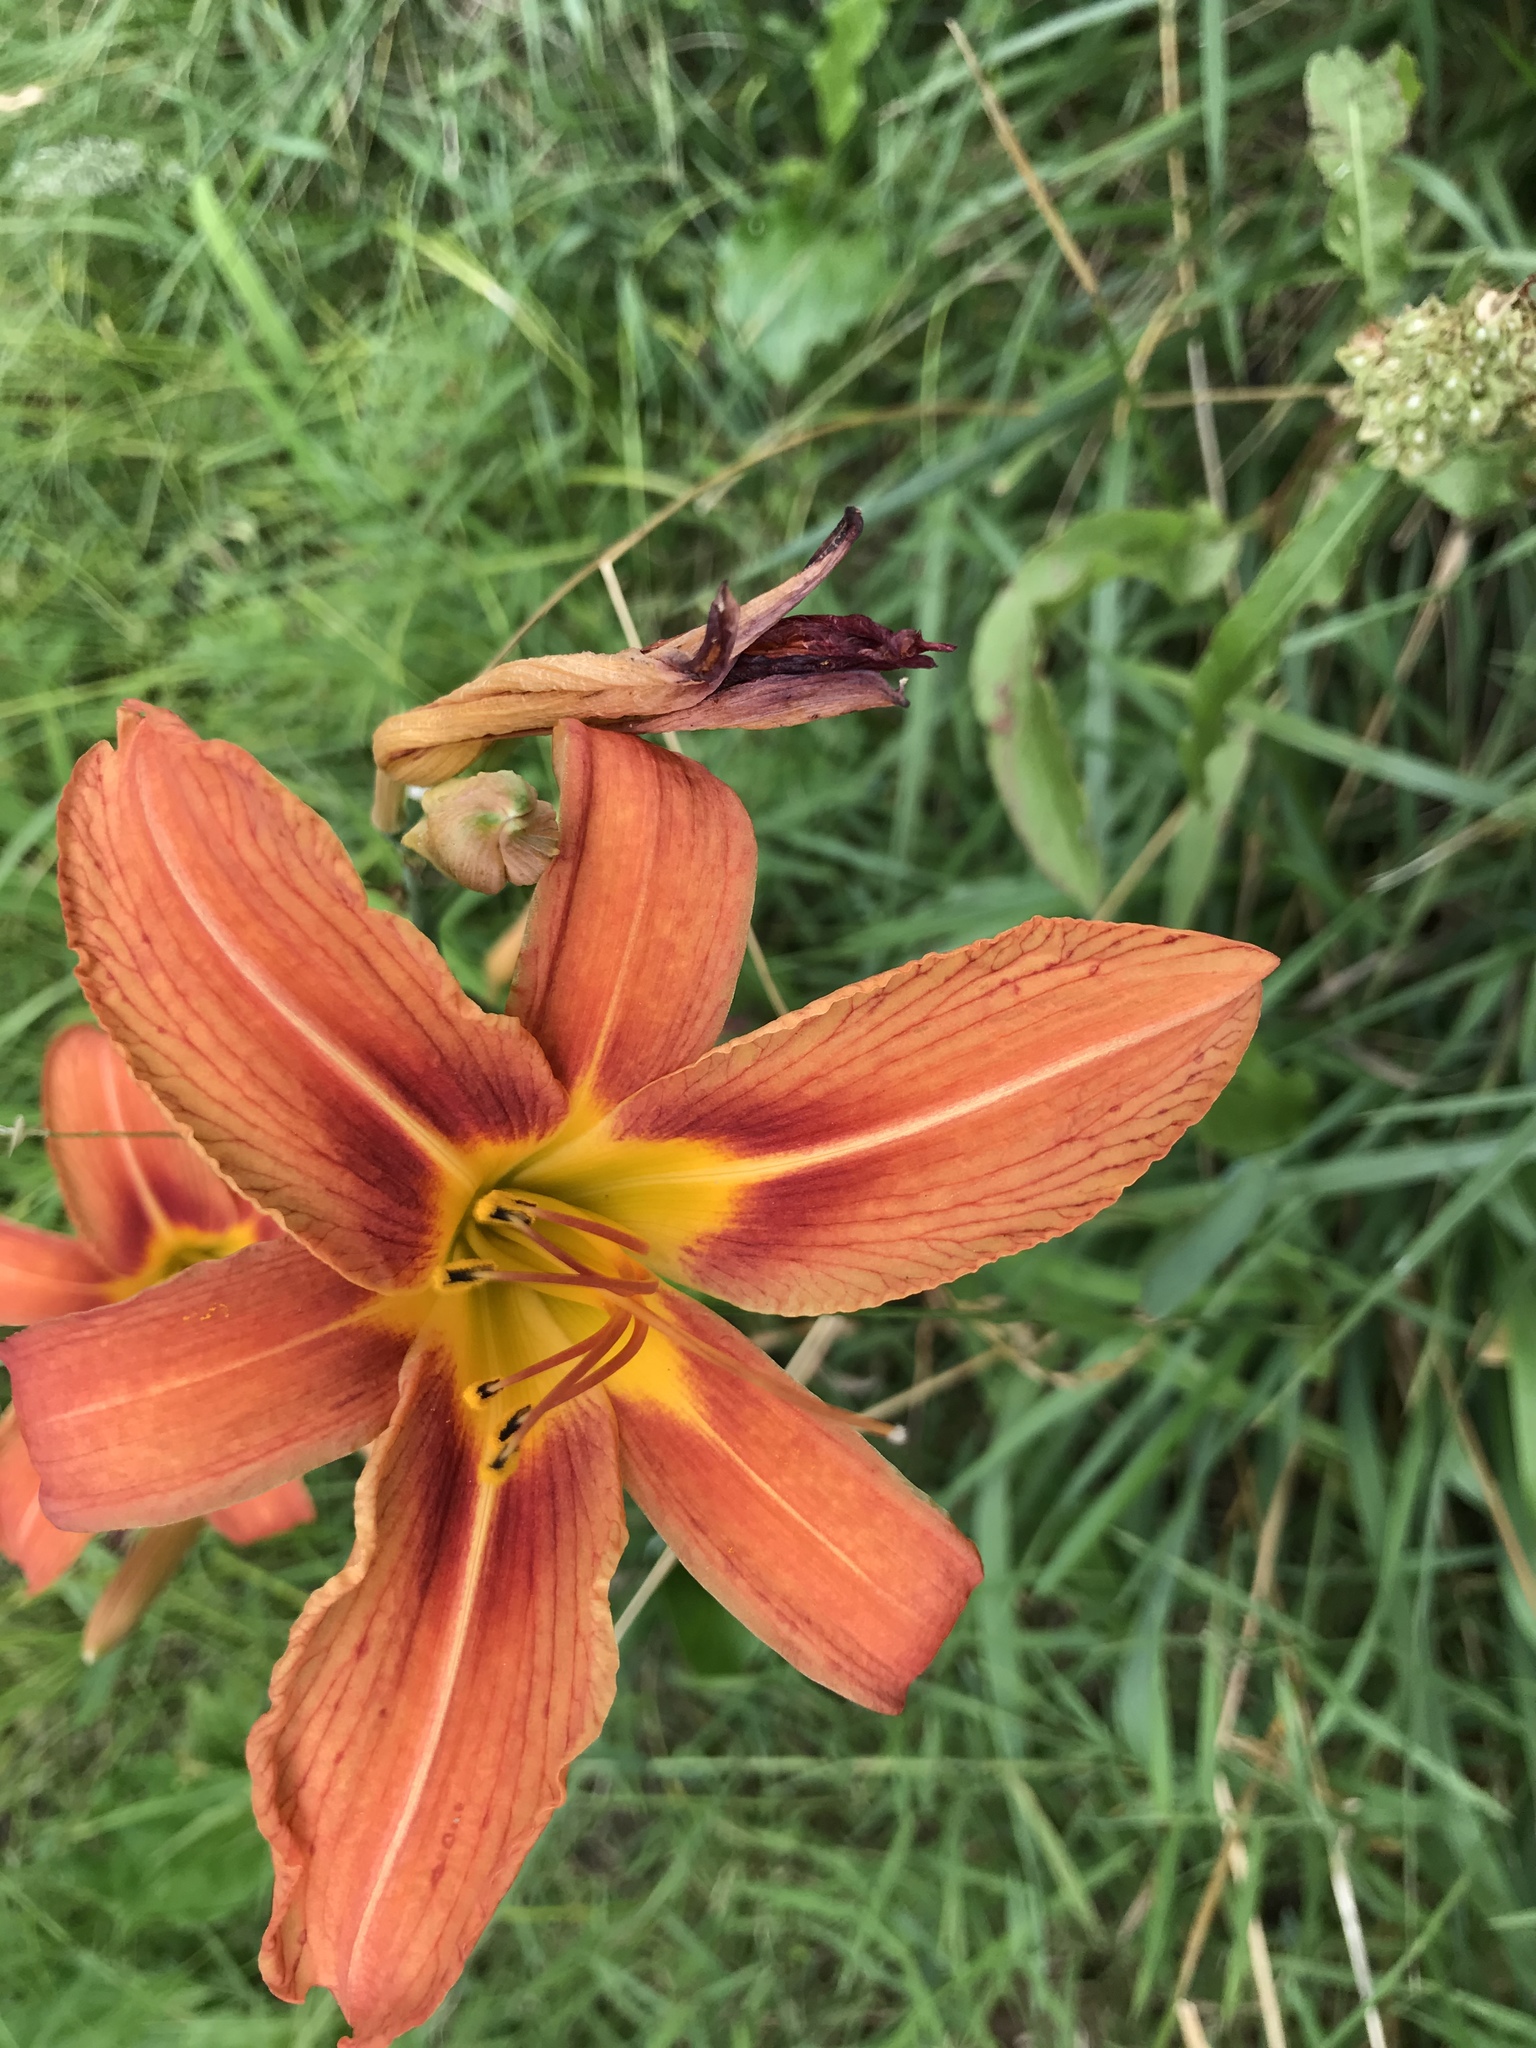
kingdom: Plantae
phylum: Tracheophyta
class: Liliopsida
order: Asparagales
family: Asphodelaceae
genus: Hemerocallis
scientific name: Hemerocallis fulva
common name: Orange day-lily
